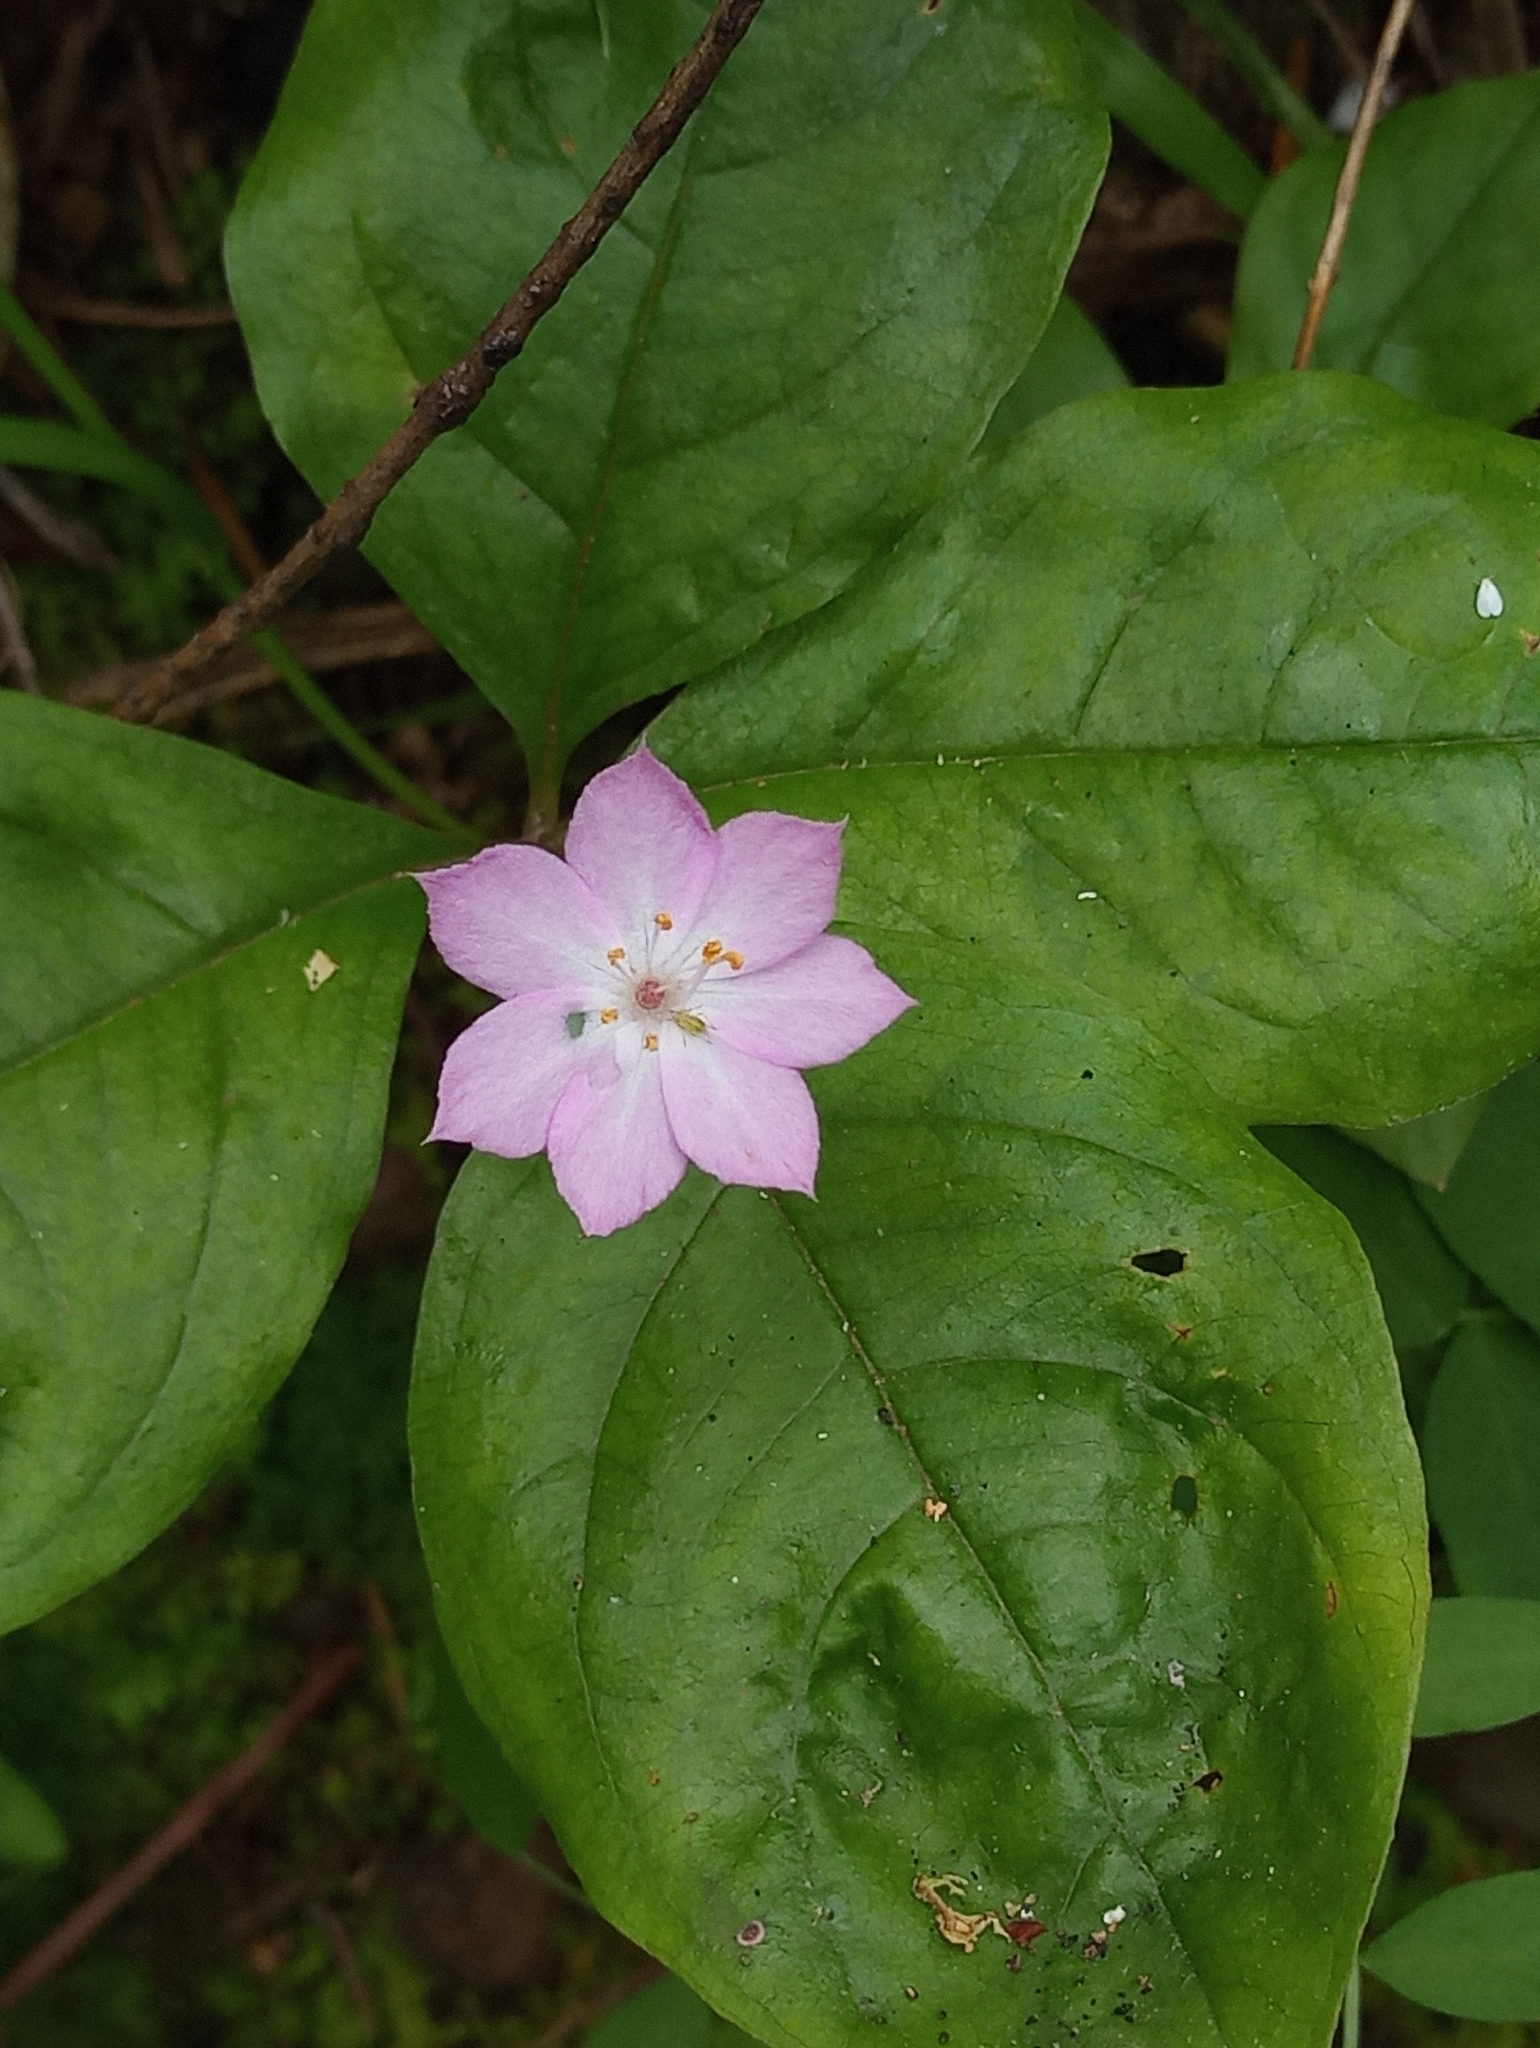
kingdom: Plantae
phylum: Tracheophyta
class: Magnoliopsida
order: Ericales
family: Primulaceae
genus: Lysimachia
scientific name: Lysimachia latifolia
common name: Pacific starflower
